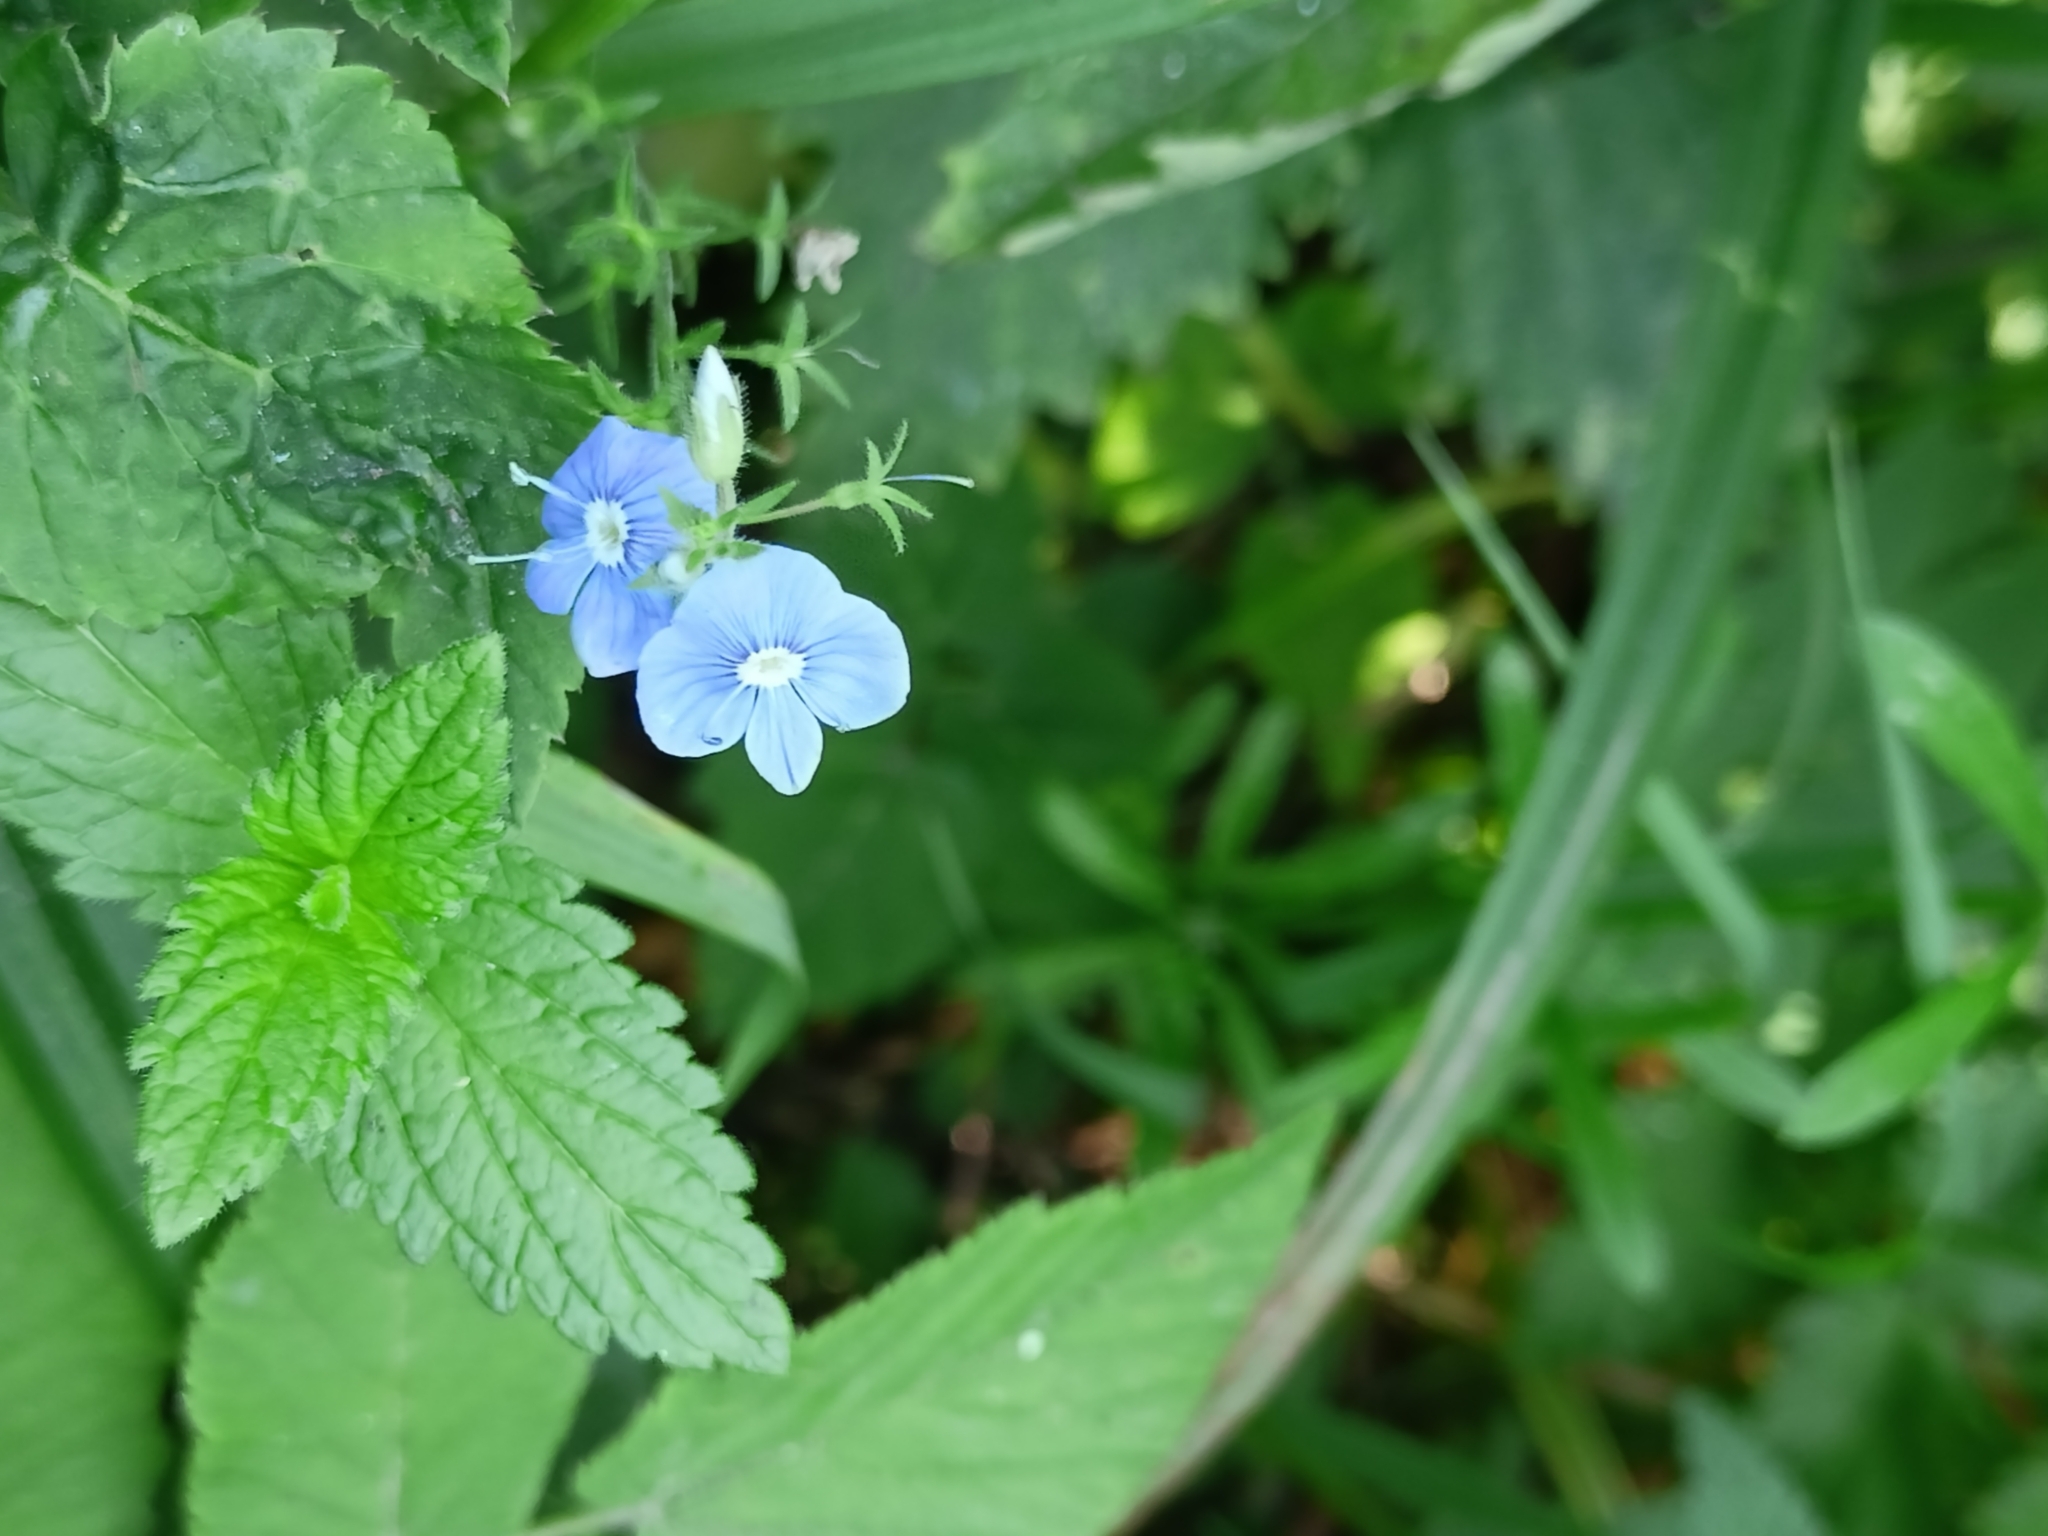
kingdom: Plantae
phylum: Tracheophyta
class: Magnoliopsida
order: Lamiales
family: Plantaginaceae
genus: Veronica
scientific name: Veronica chamaedrys
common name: Germander speedwell
